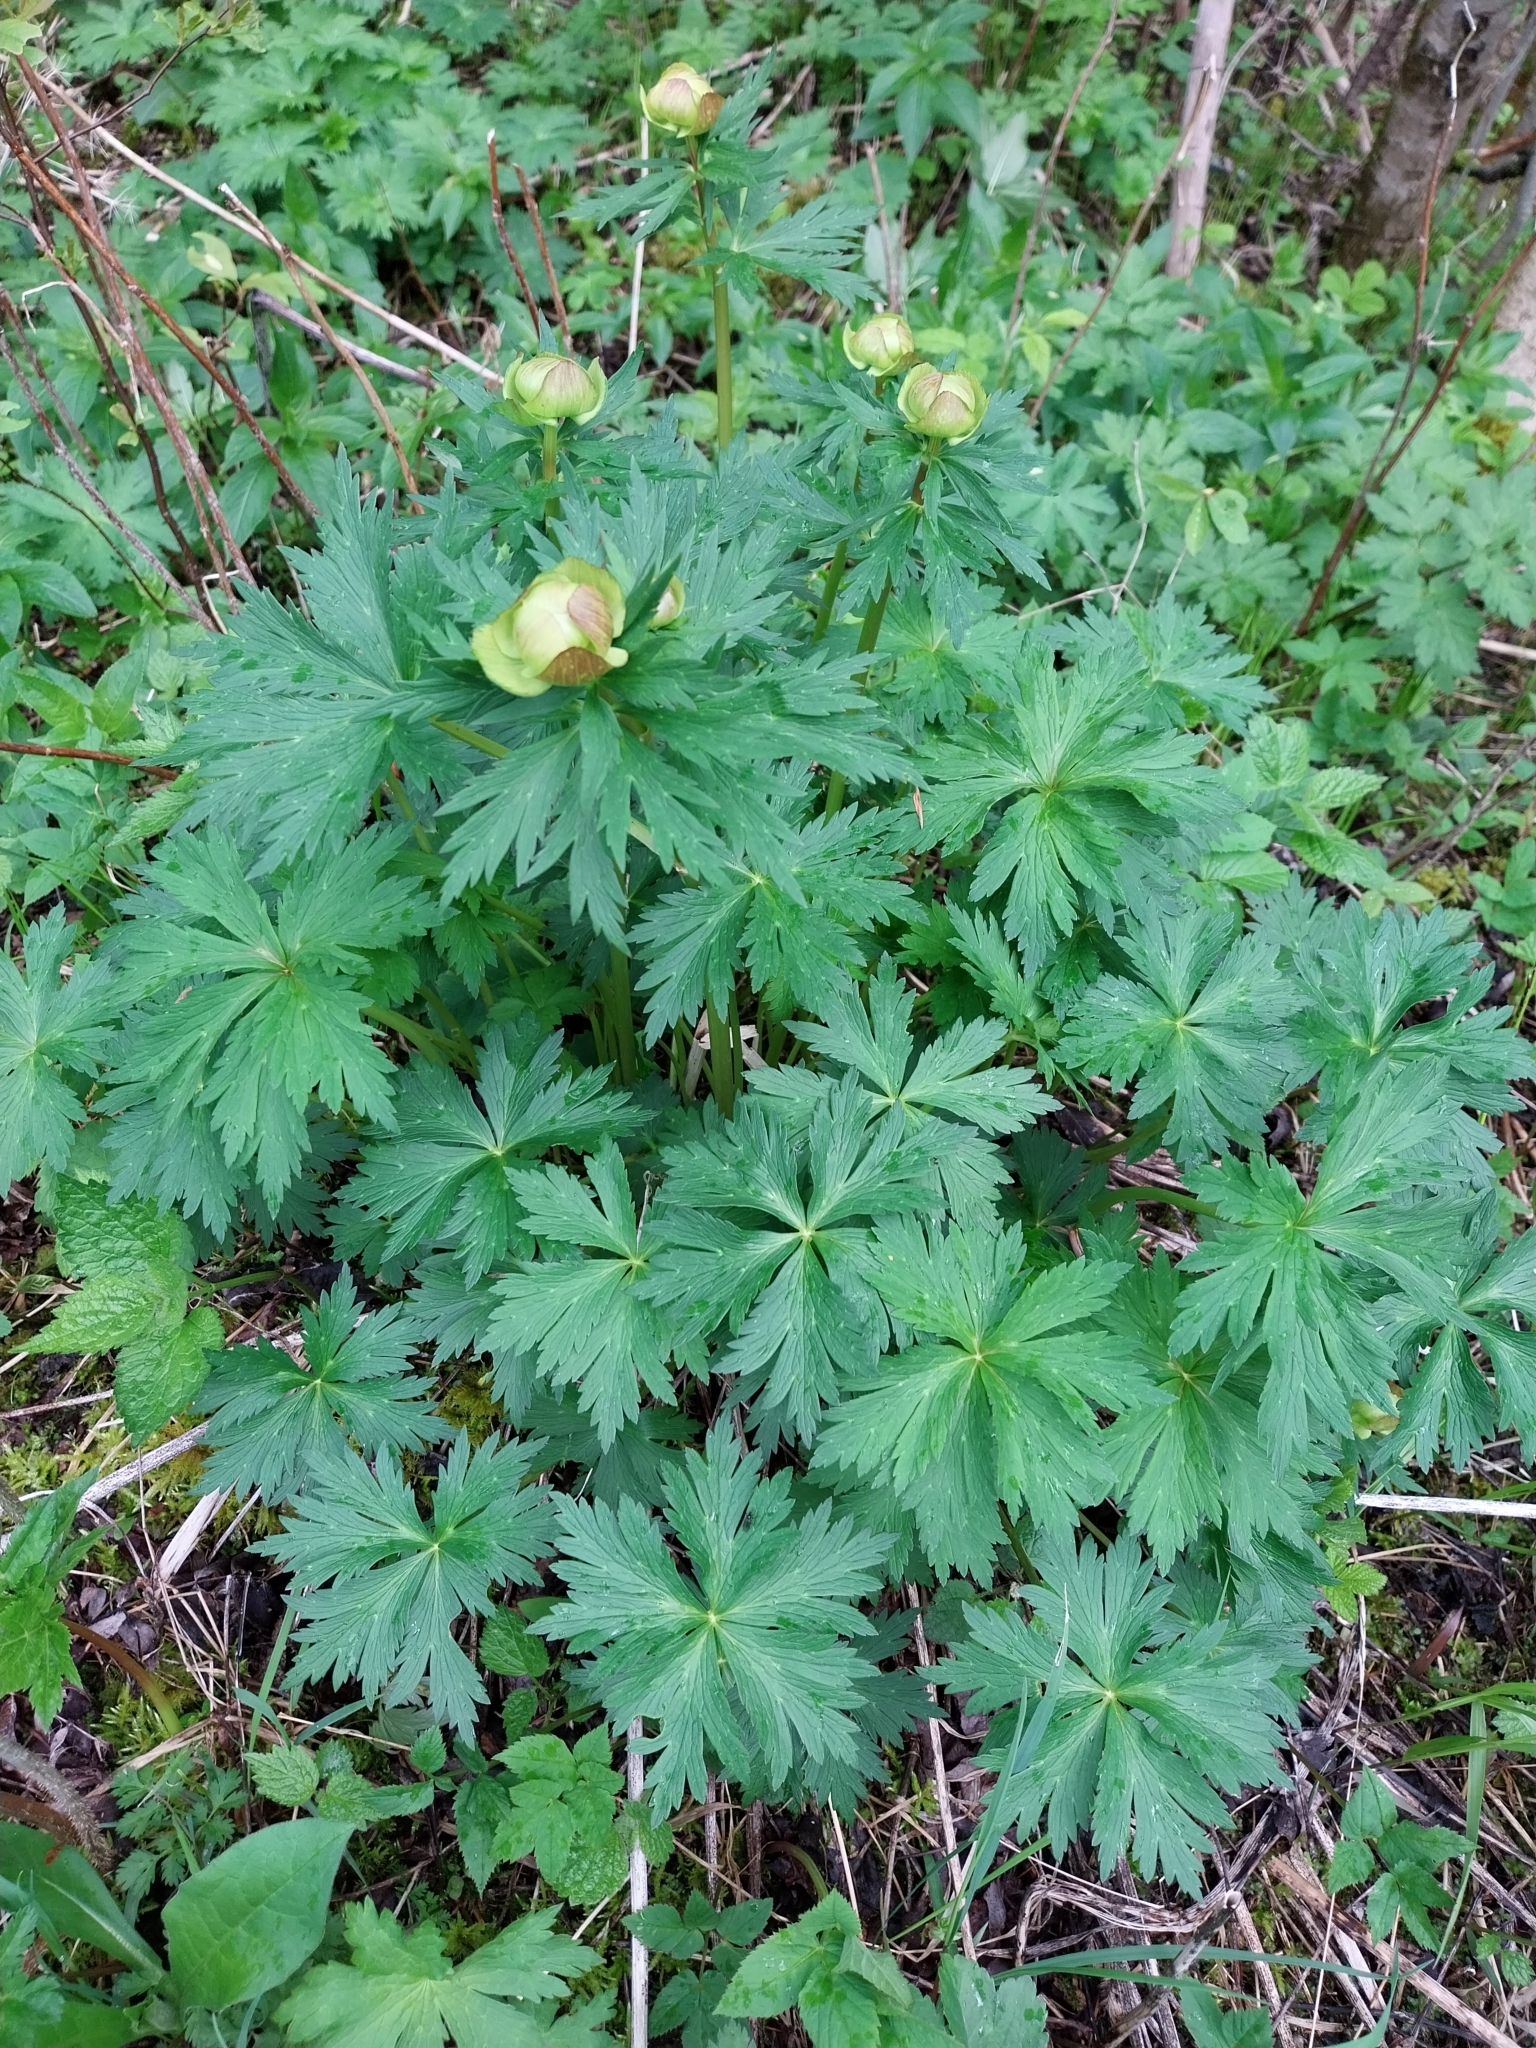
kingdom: Plantae
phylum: Tracheophyta
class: Magnoliopsida
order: Ranunculales
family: Ranunculaceae
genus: Trollius
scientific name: Trollius europaeus
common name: European globeflower
